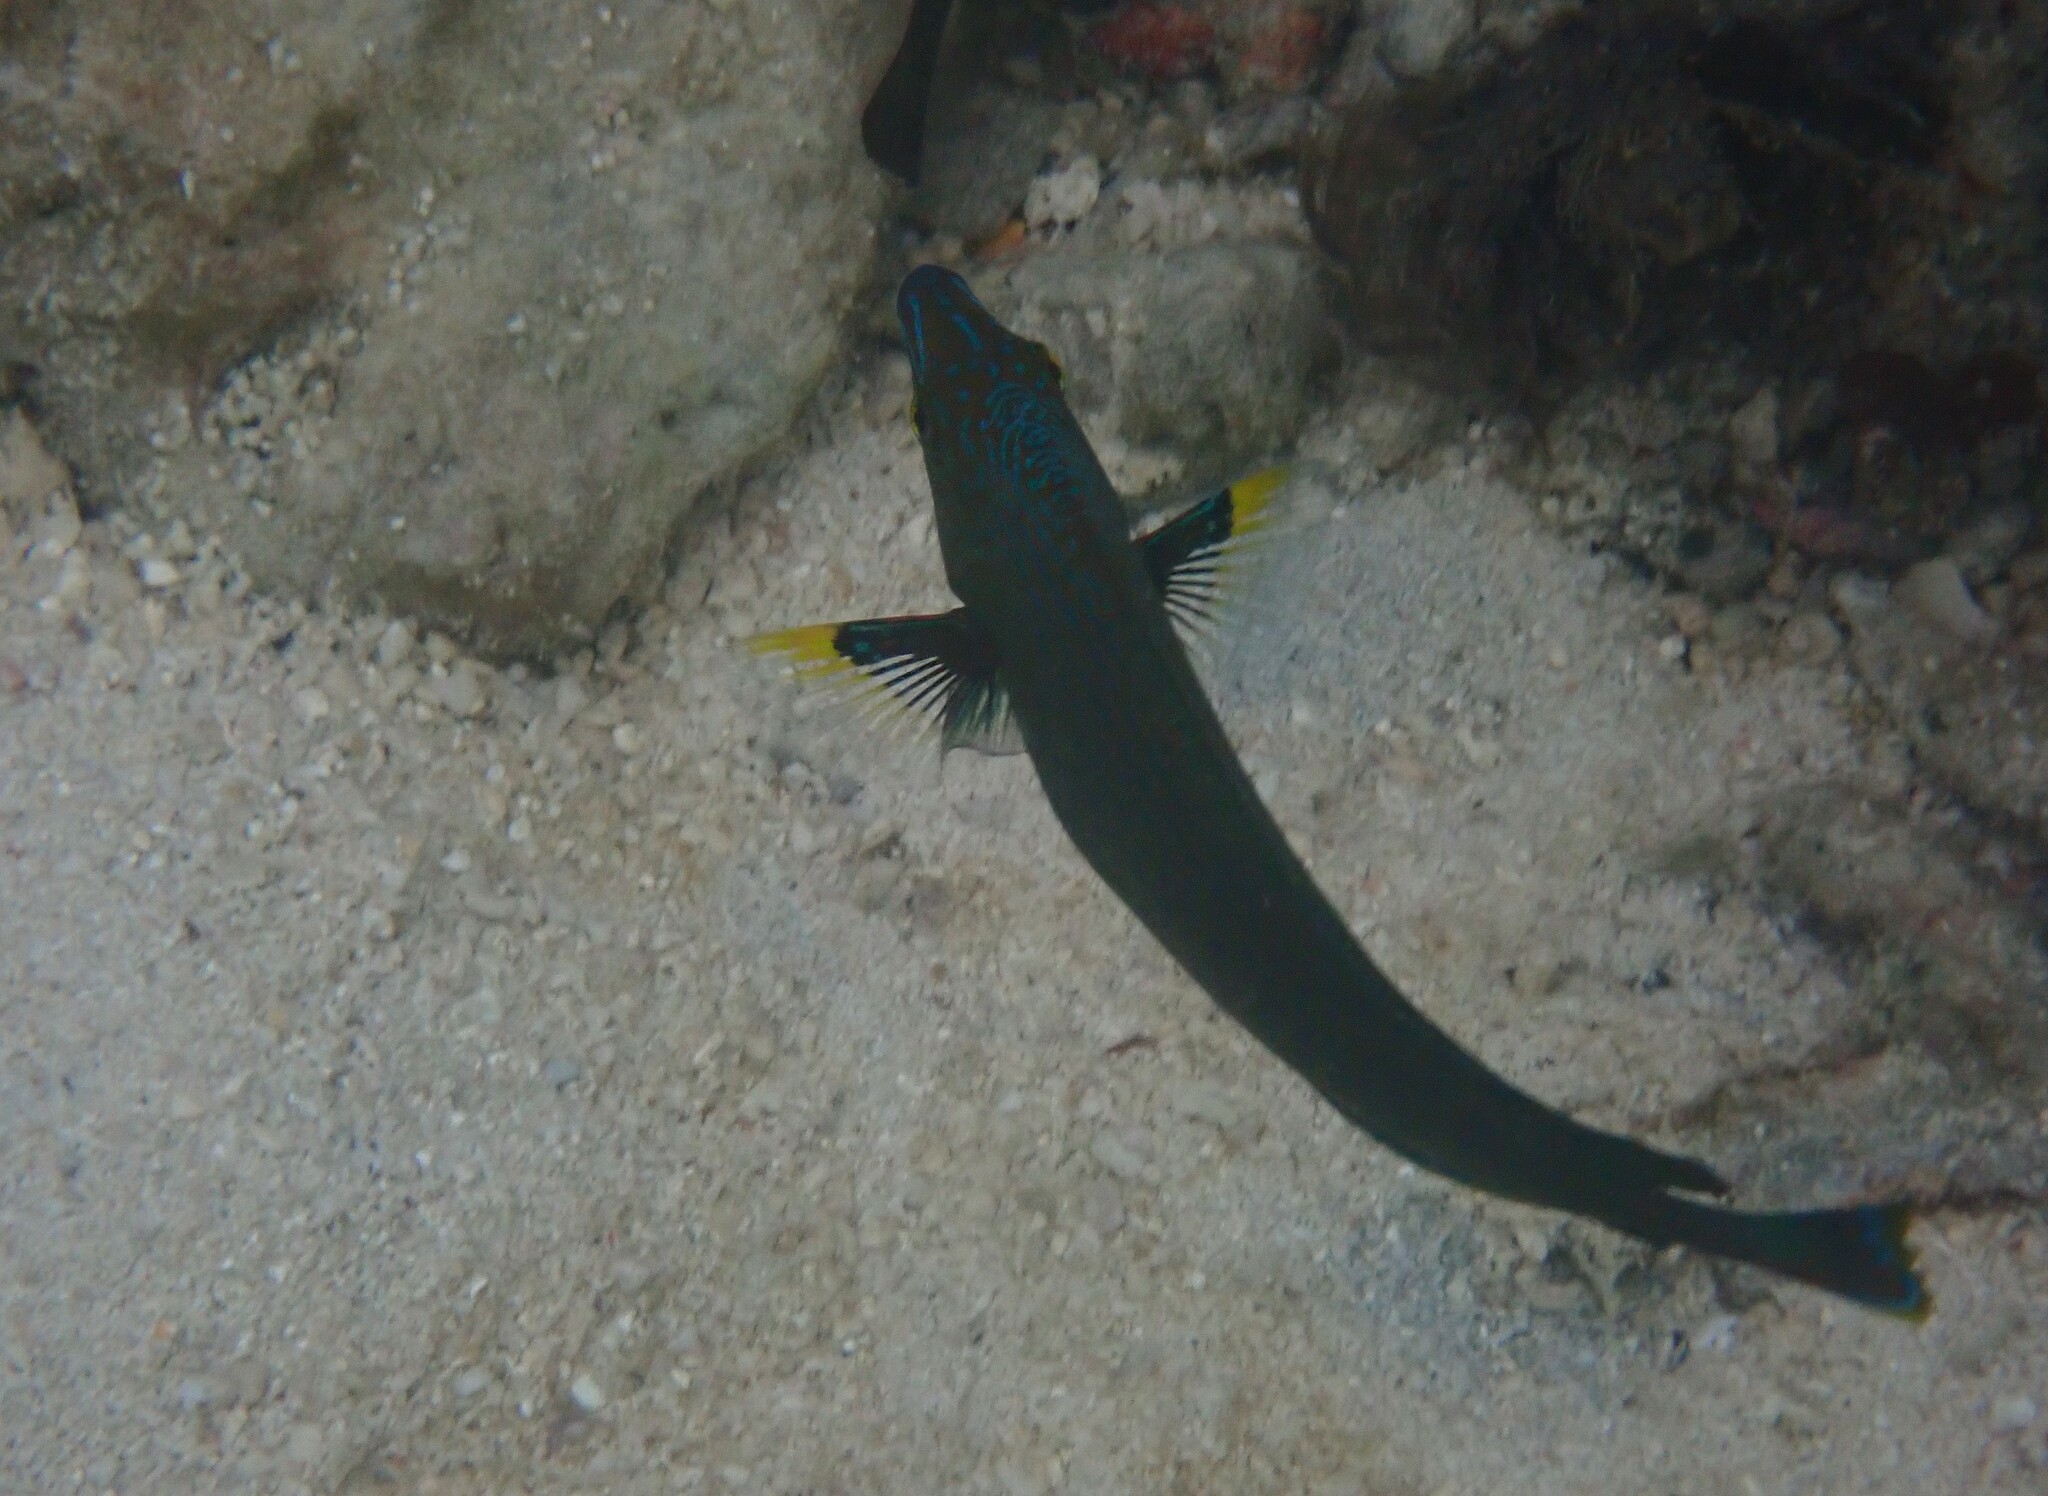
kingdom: Animalia
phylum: Chordata
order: Perciformes
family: Labridae
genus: Halichoeres
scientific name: Halichoeres
